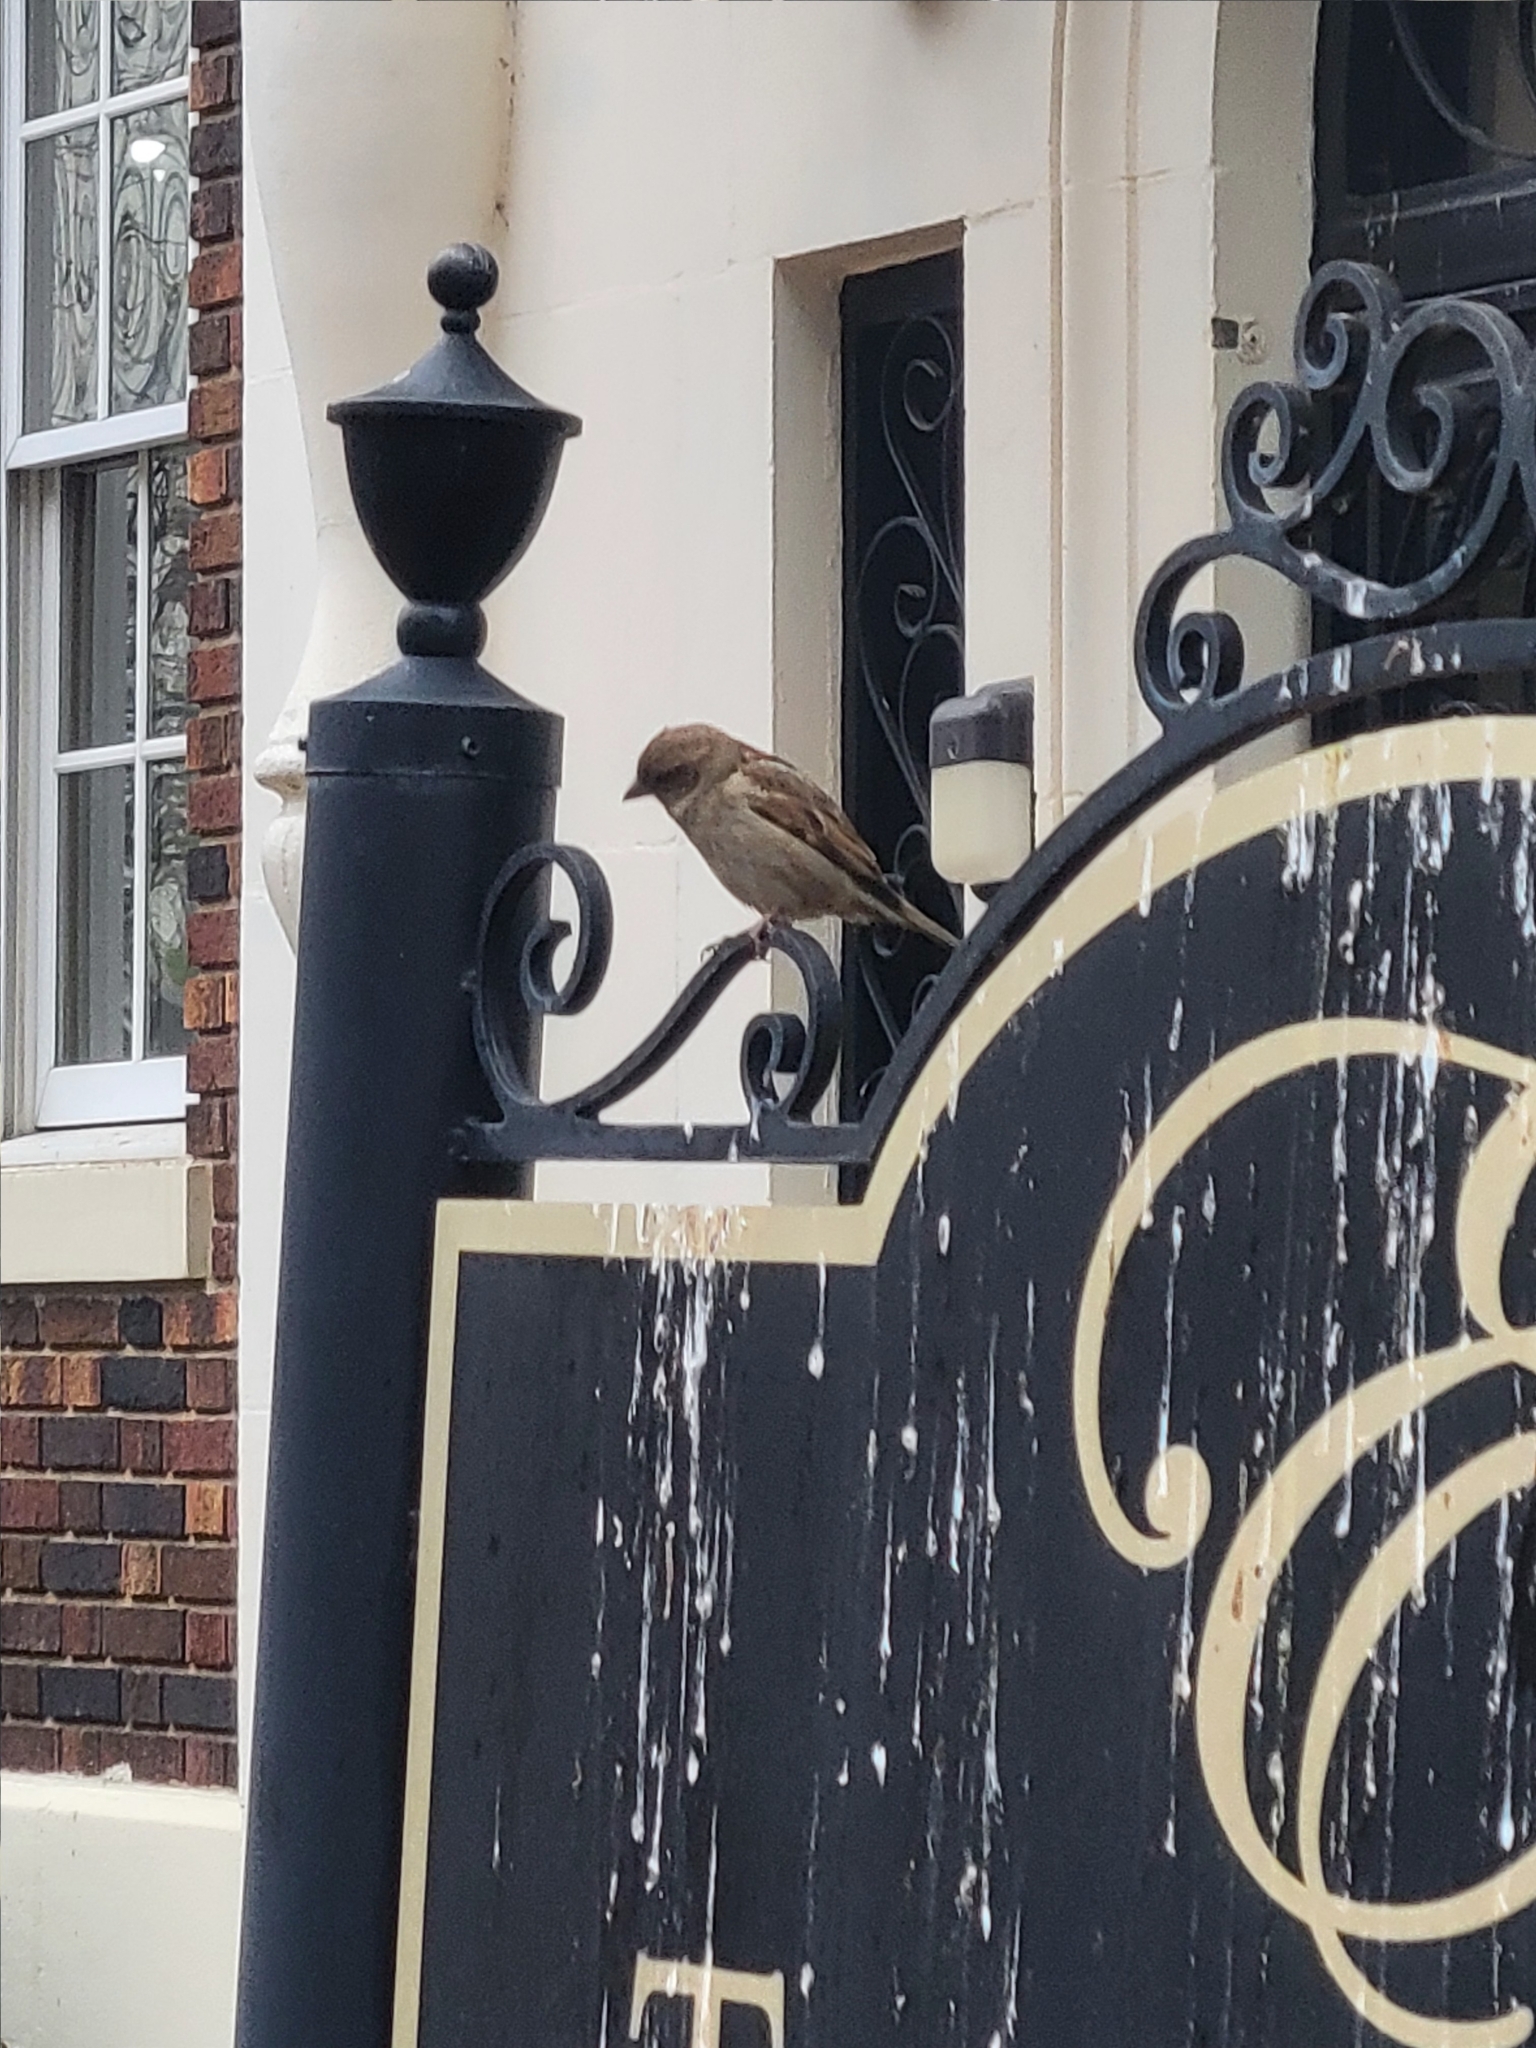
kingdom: Animalia
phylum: Chordata
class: Aves
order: Passeriformes
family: Passeridae
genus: Passer
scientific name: Passer domesticus
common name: House sparrow
